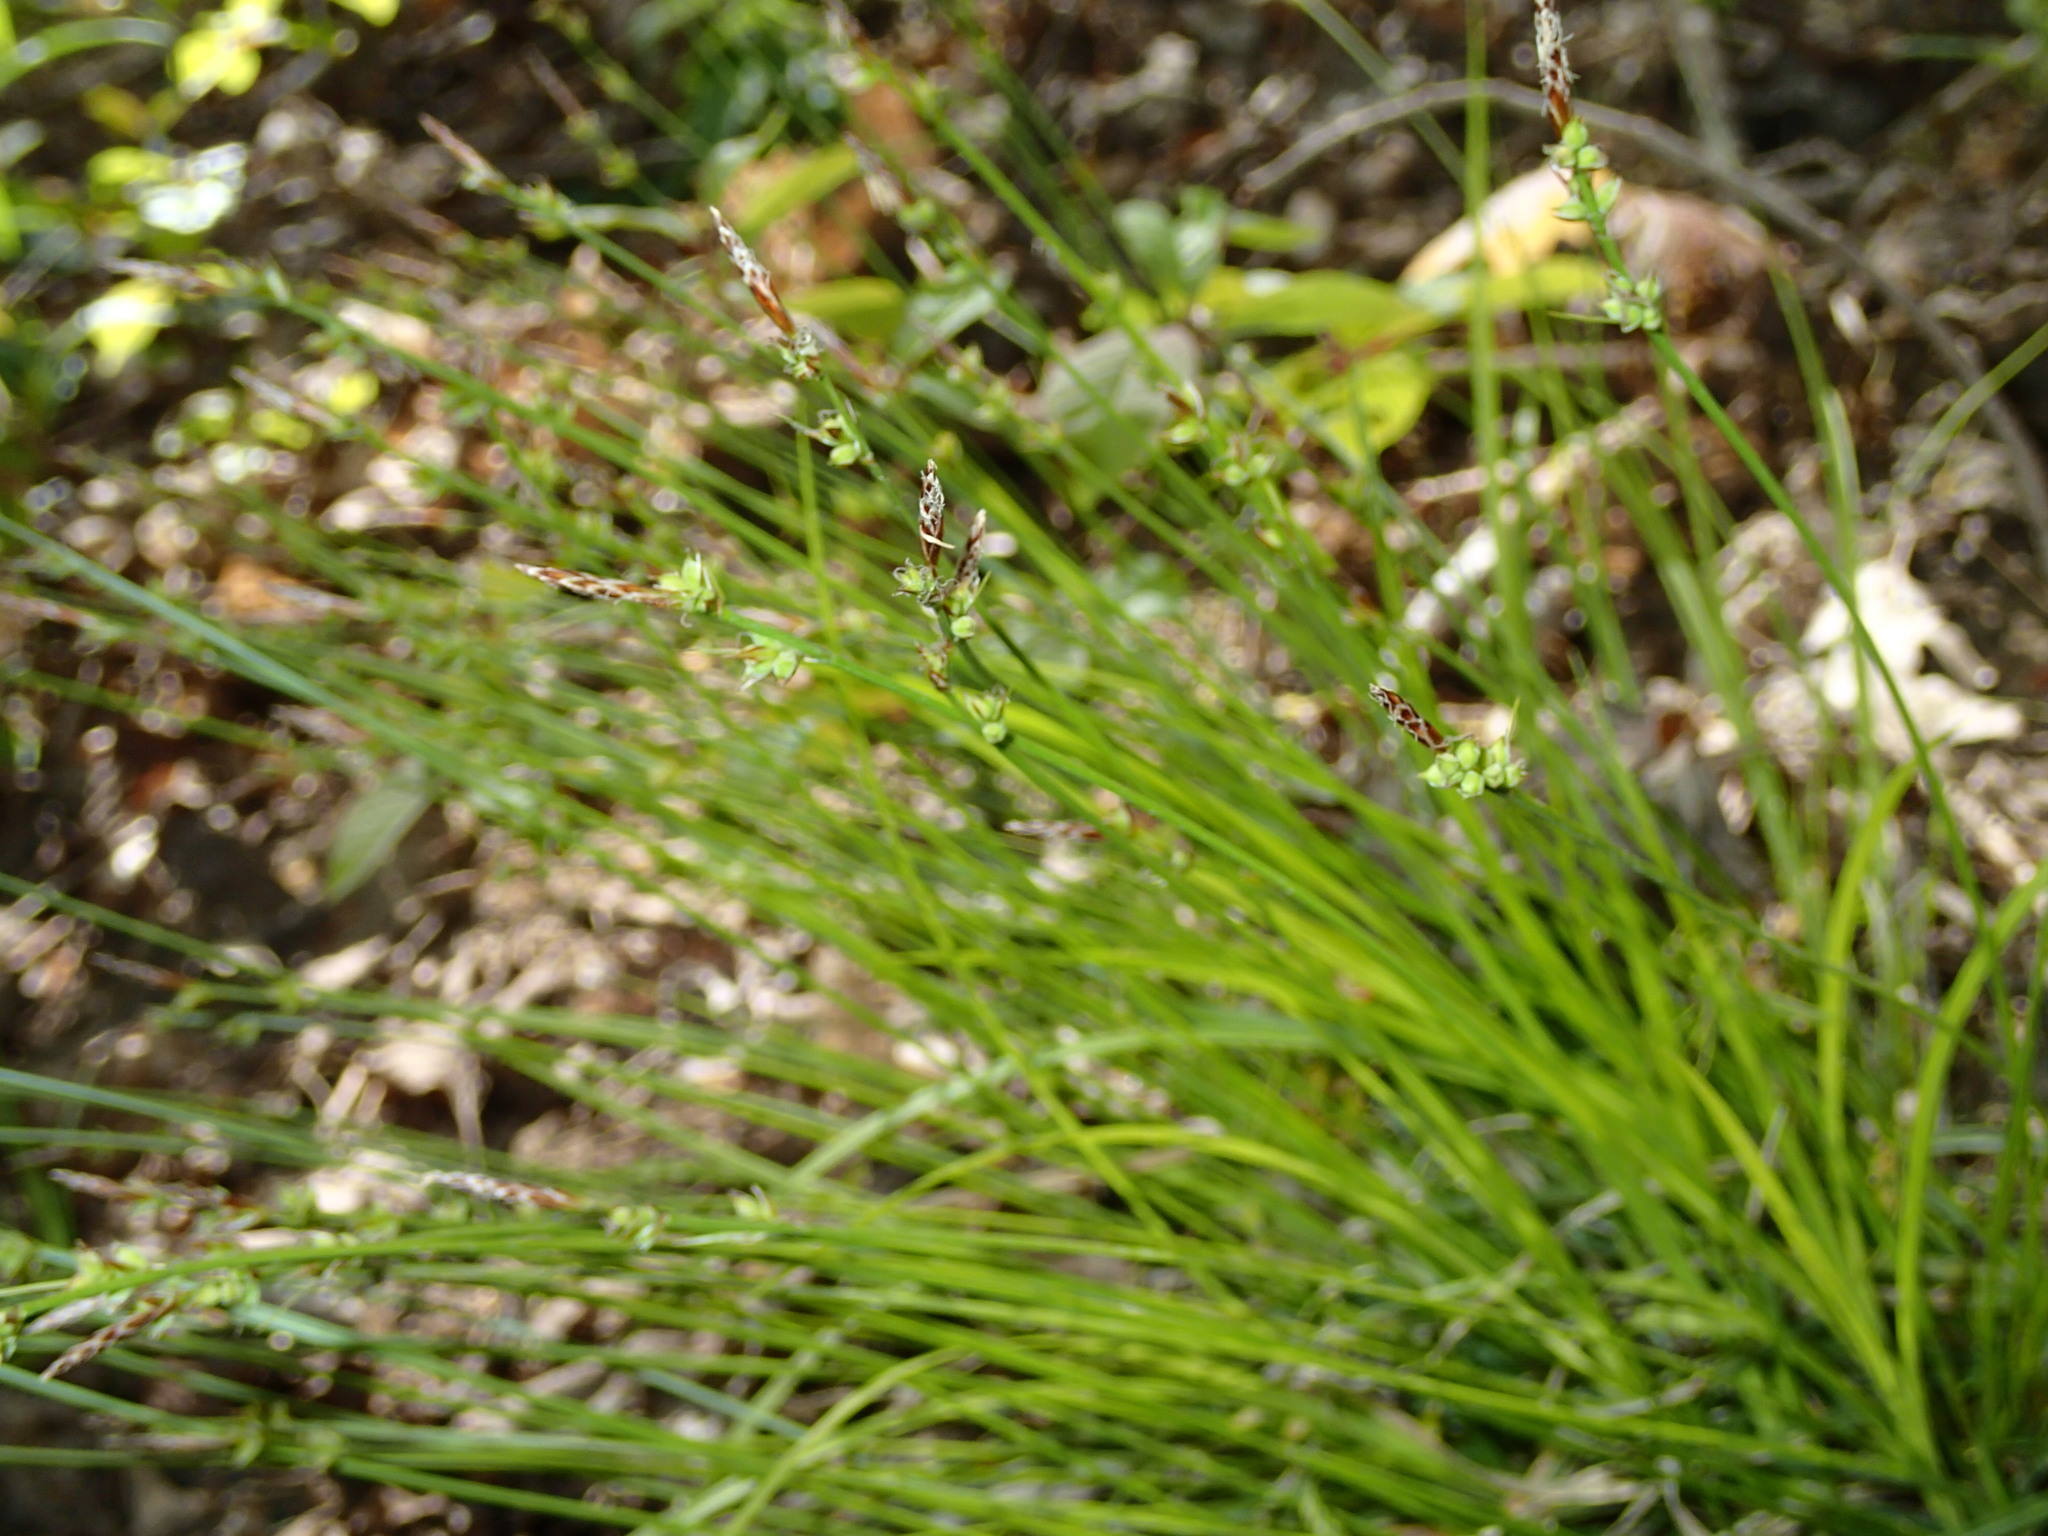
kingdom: Plantae
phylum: Tracheophyta
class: Liliopsida
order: Poales
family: Cyperaceae
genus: Carex
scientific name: Carex pensylvanica
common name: Common oak sedge
